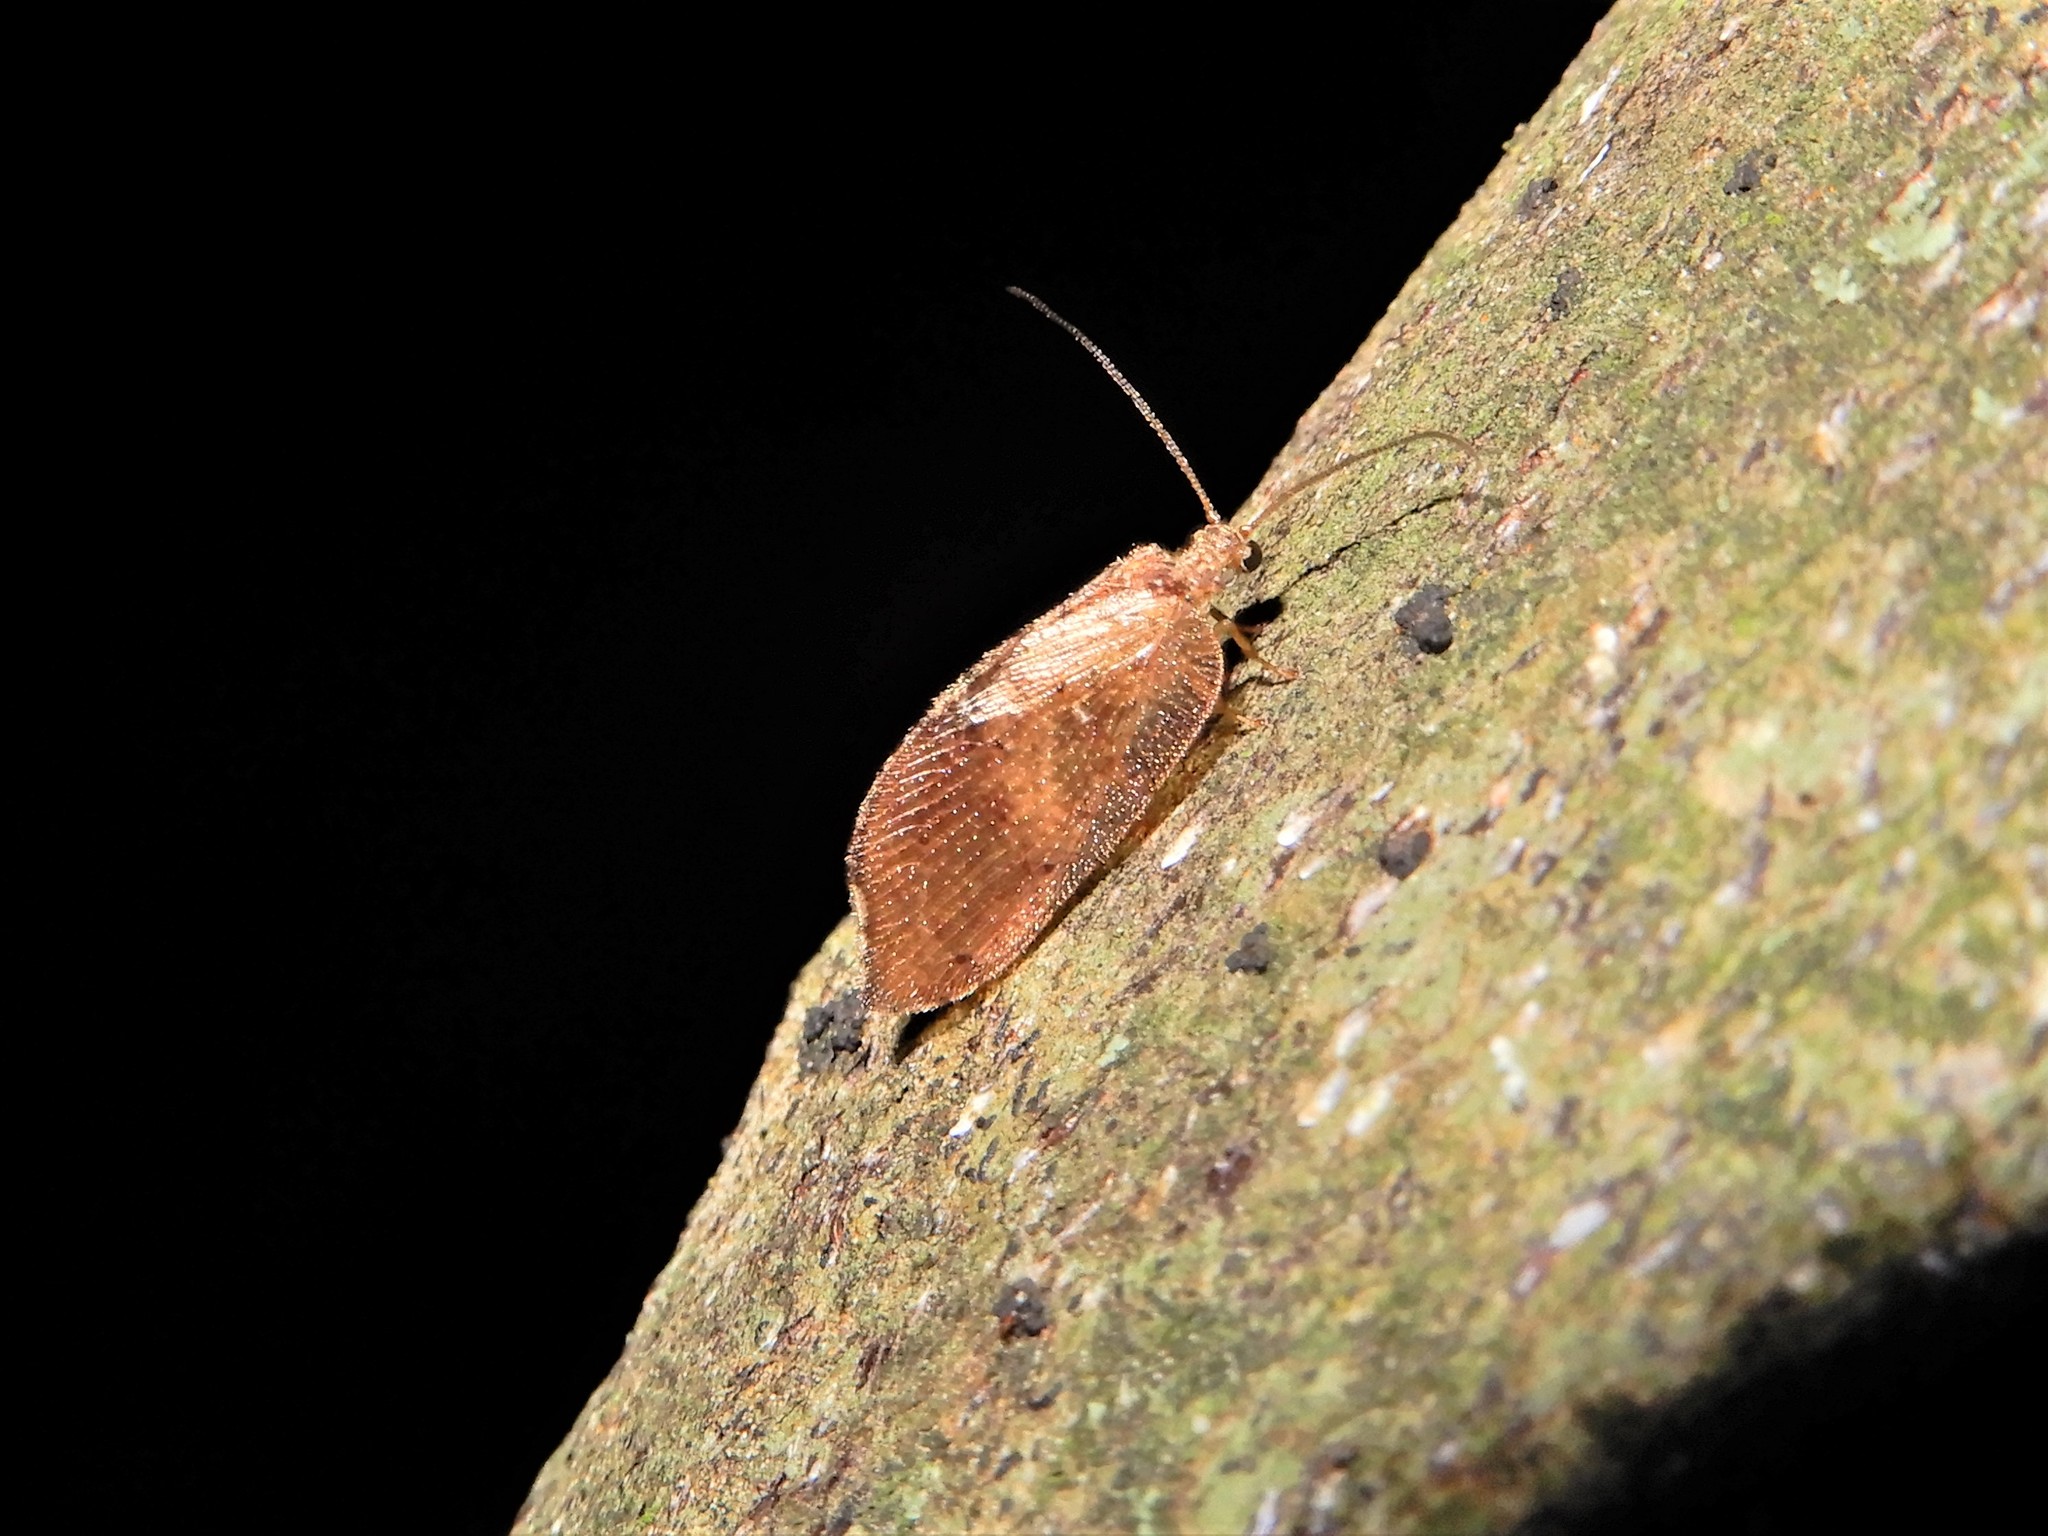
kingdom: Animalia
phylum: Arthropoda
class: Insecta
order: Neuroptera
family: Hemerobiidae
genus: Drepanacra
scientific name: Drepanacra binocula
